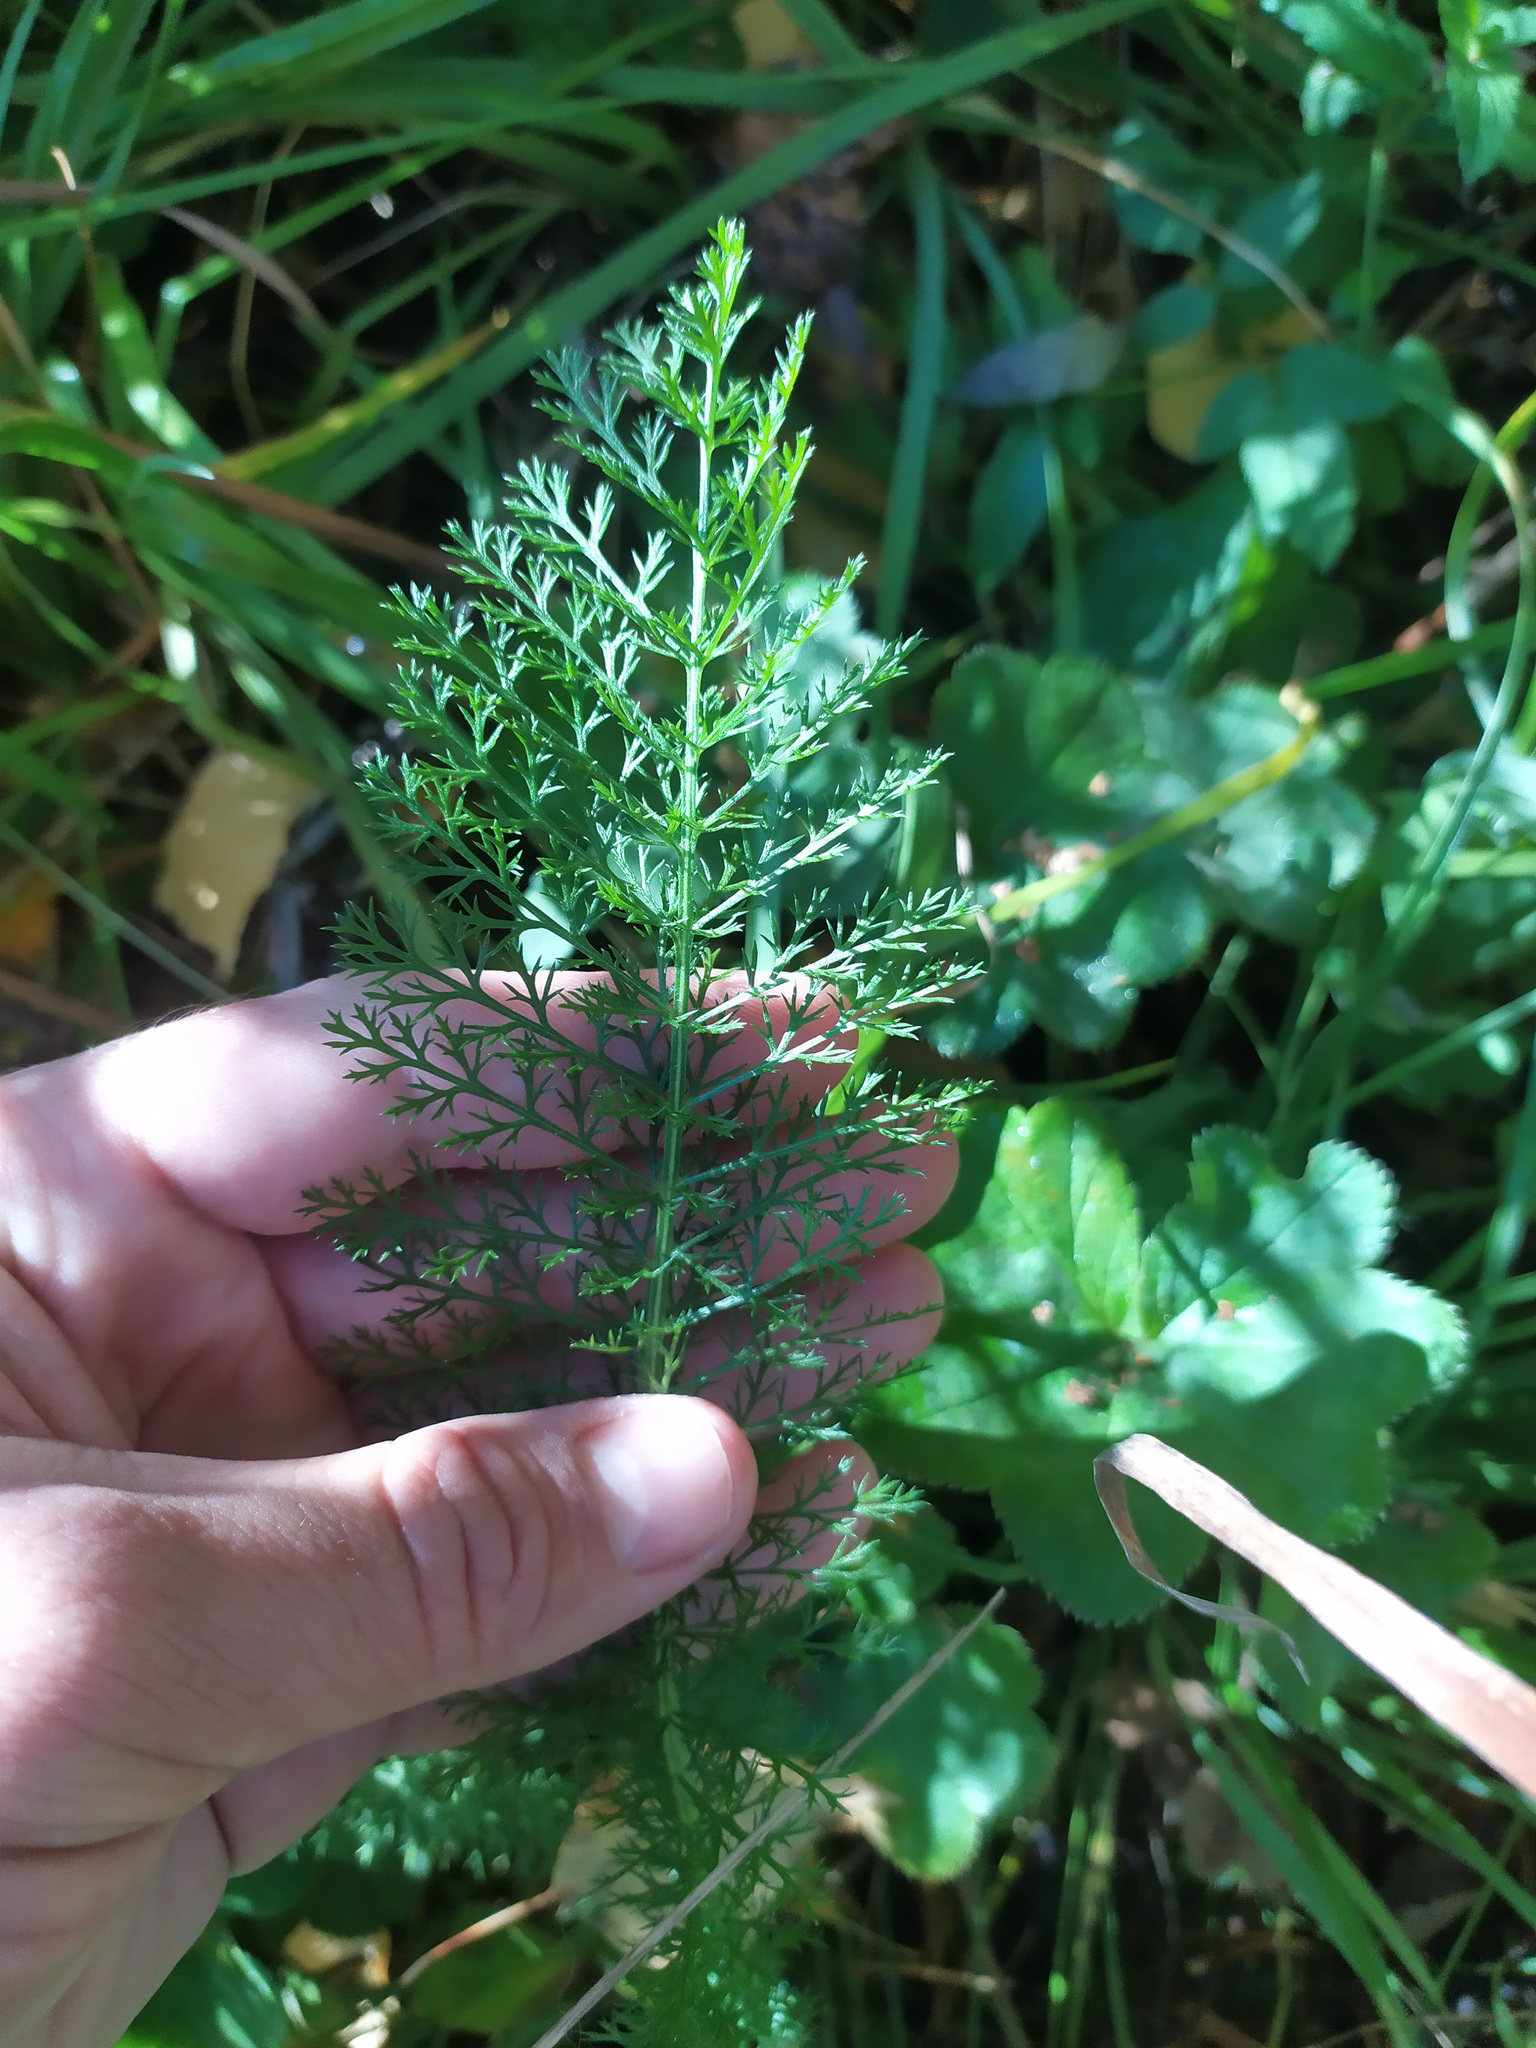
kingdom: Plantae
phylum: Tracheophyta
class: Magnoliopsida
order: Asterales
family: Asteraceae
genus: Achillea
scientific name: Achillea millefolium
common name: Yarrow
